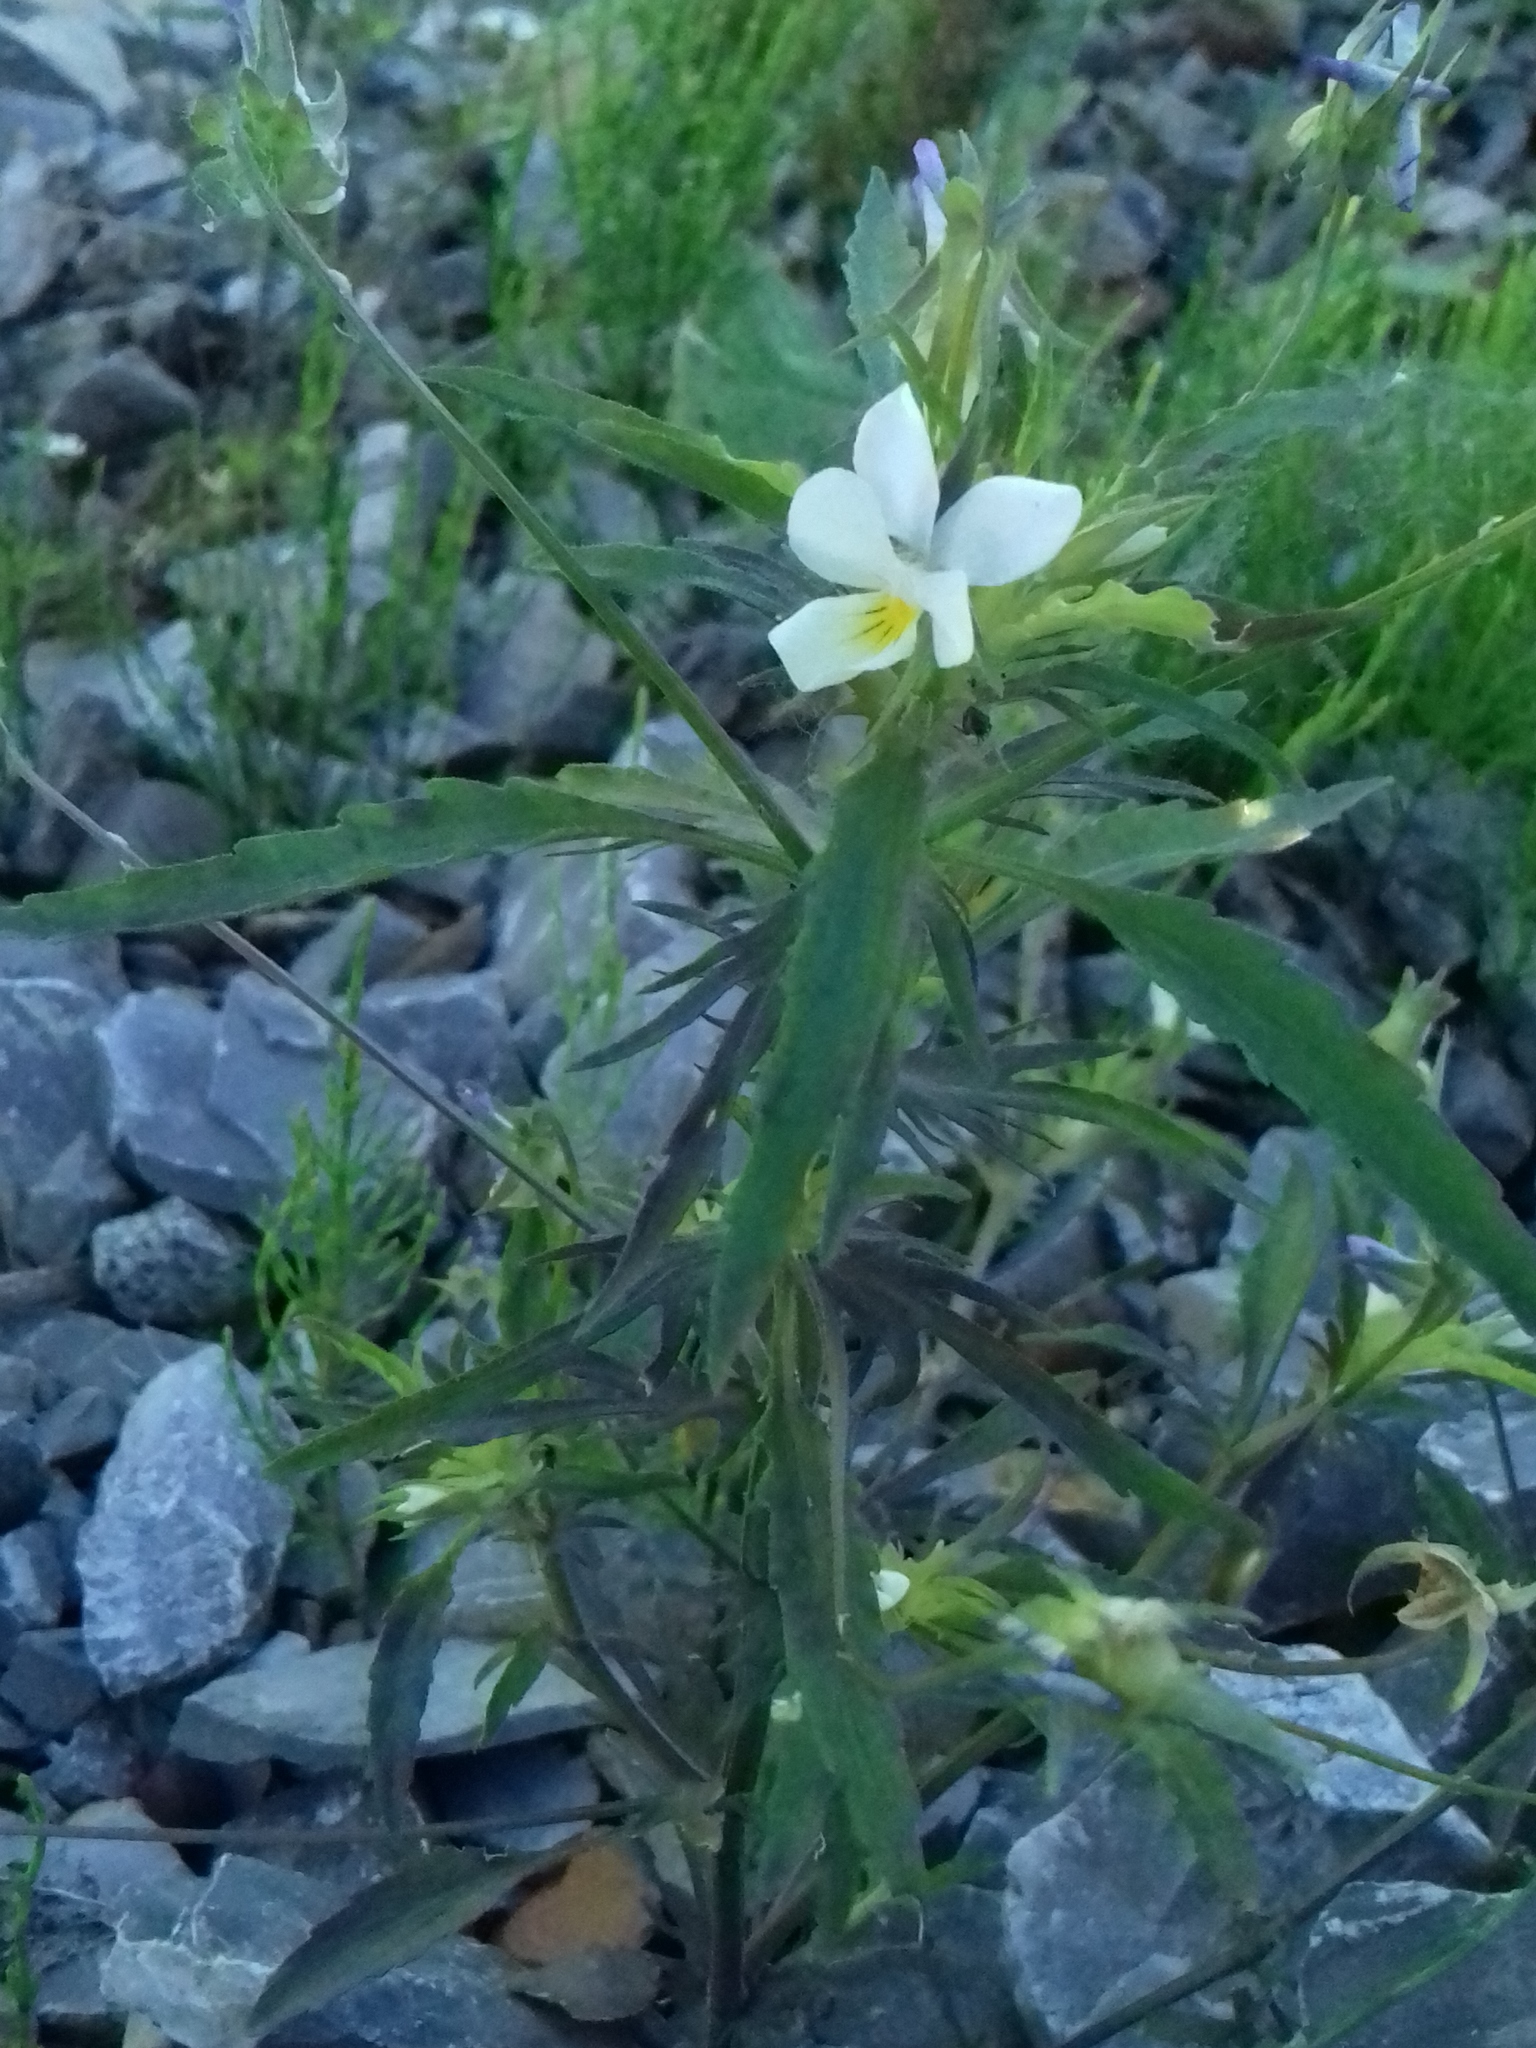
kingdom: Plantae
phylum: Tracheophyta
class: Magnoliopsida
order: Malpighiales
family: Violaceae
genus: Viola
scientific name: Viola arvensis
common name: Field pansy
